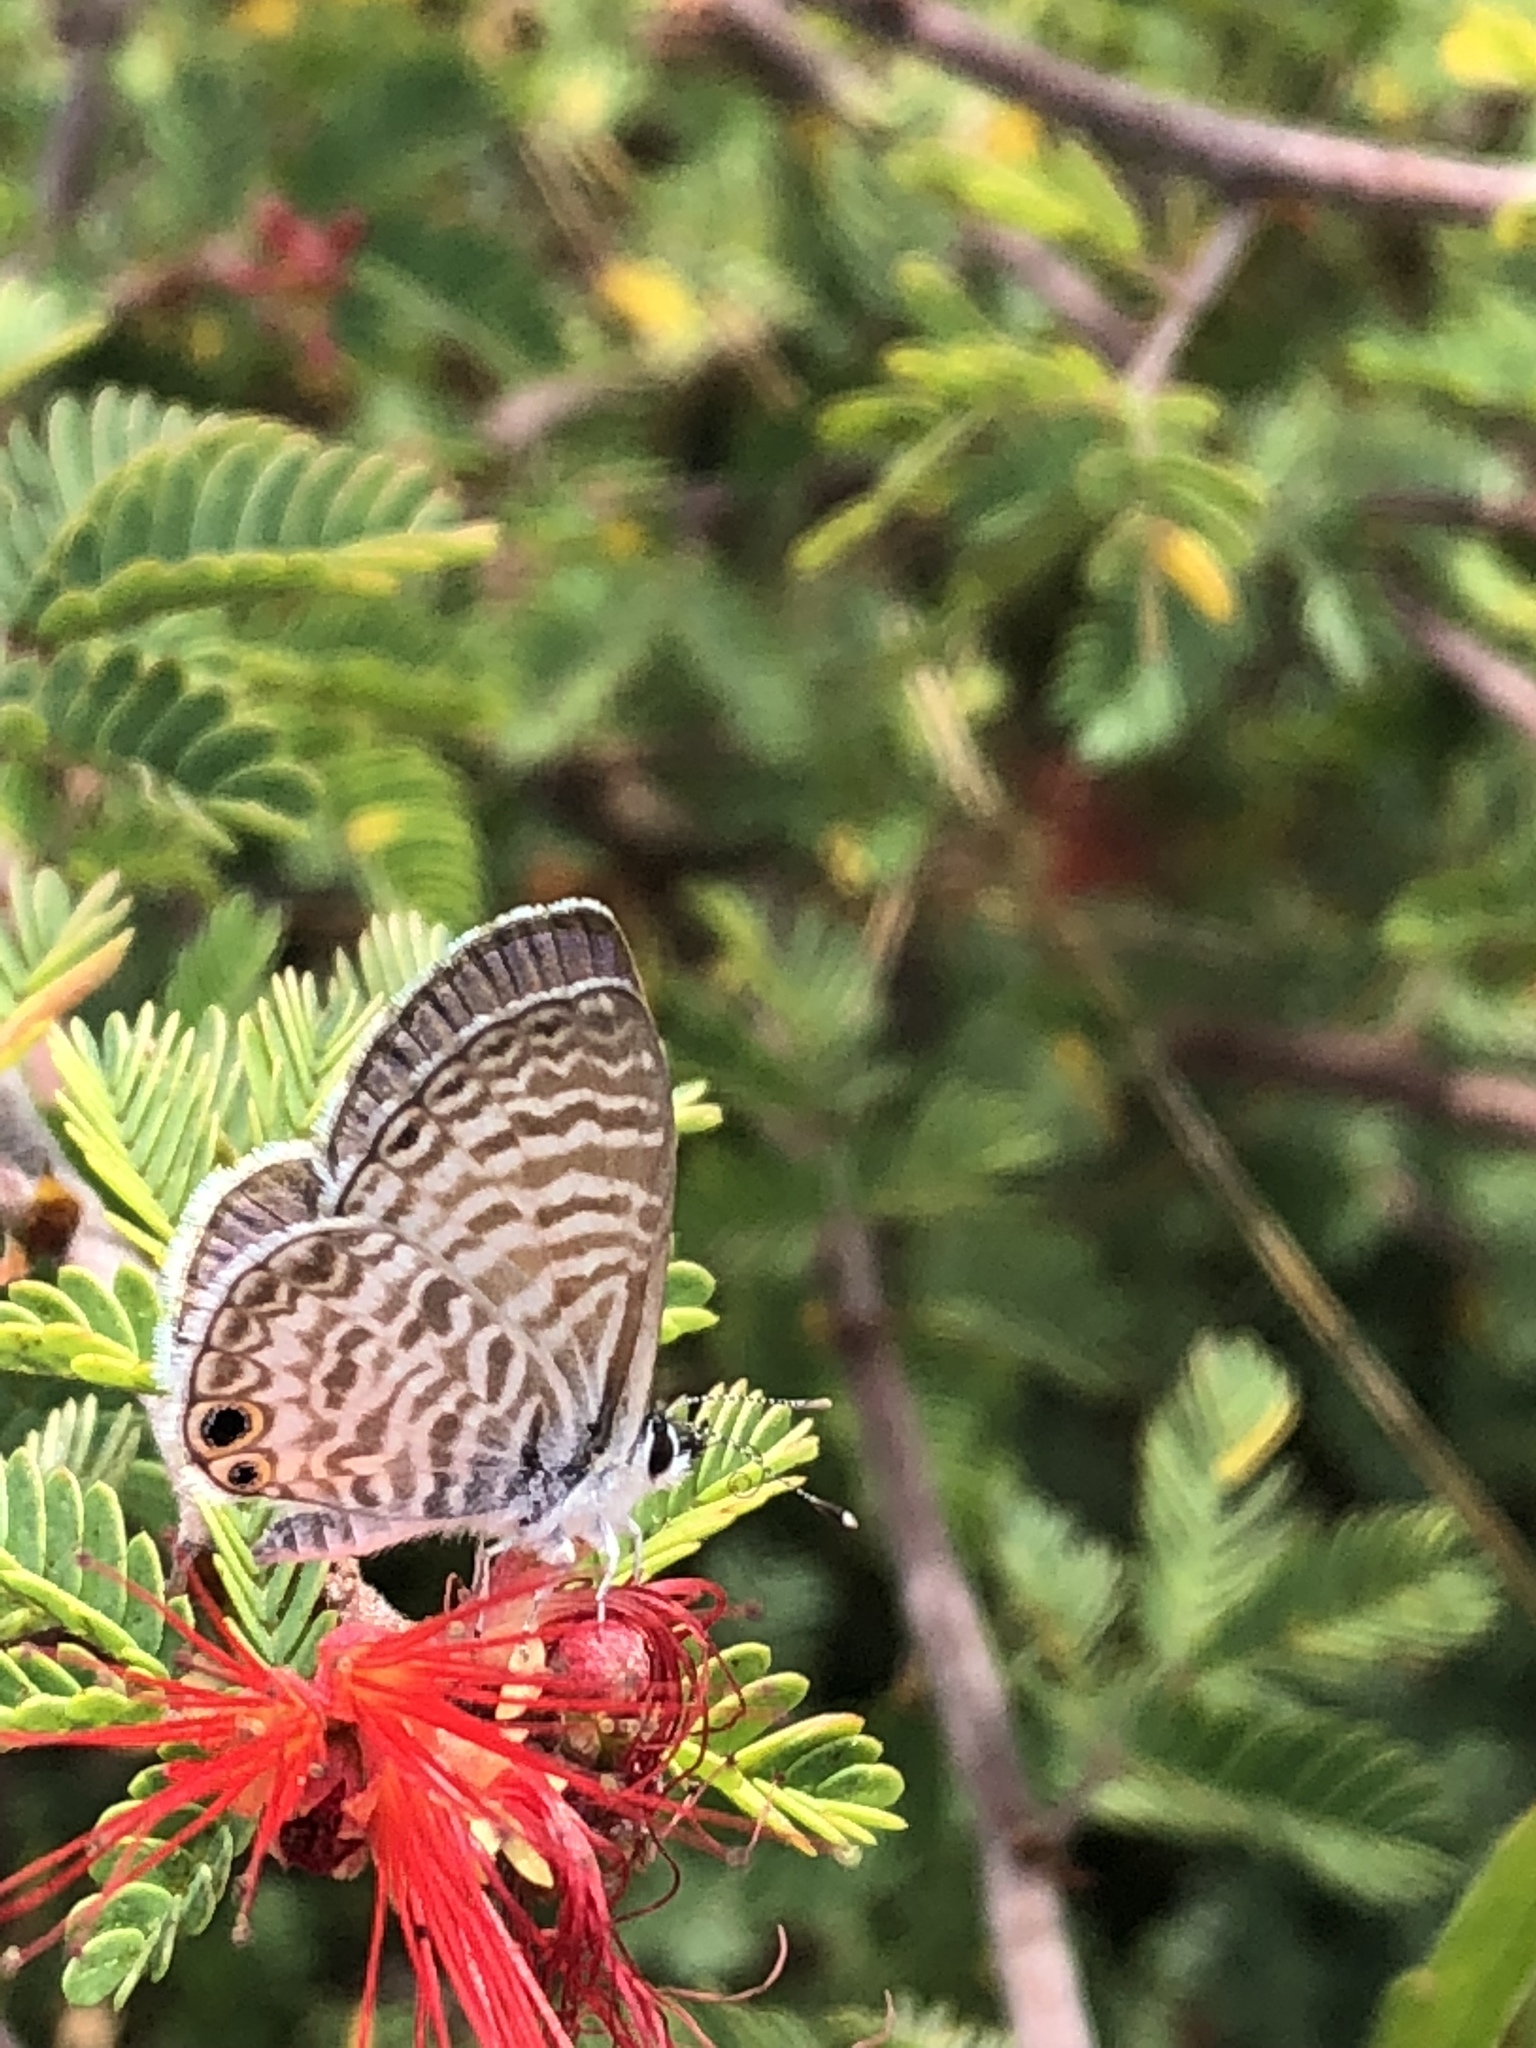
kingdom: Animalia
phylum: Arthropoda
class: Insecta
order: Lepidoptera
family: Lycaenidae
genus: Leptotes
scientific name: Leptotes marina
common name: Marine blue
